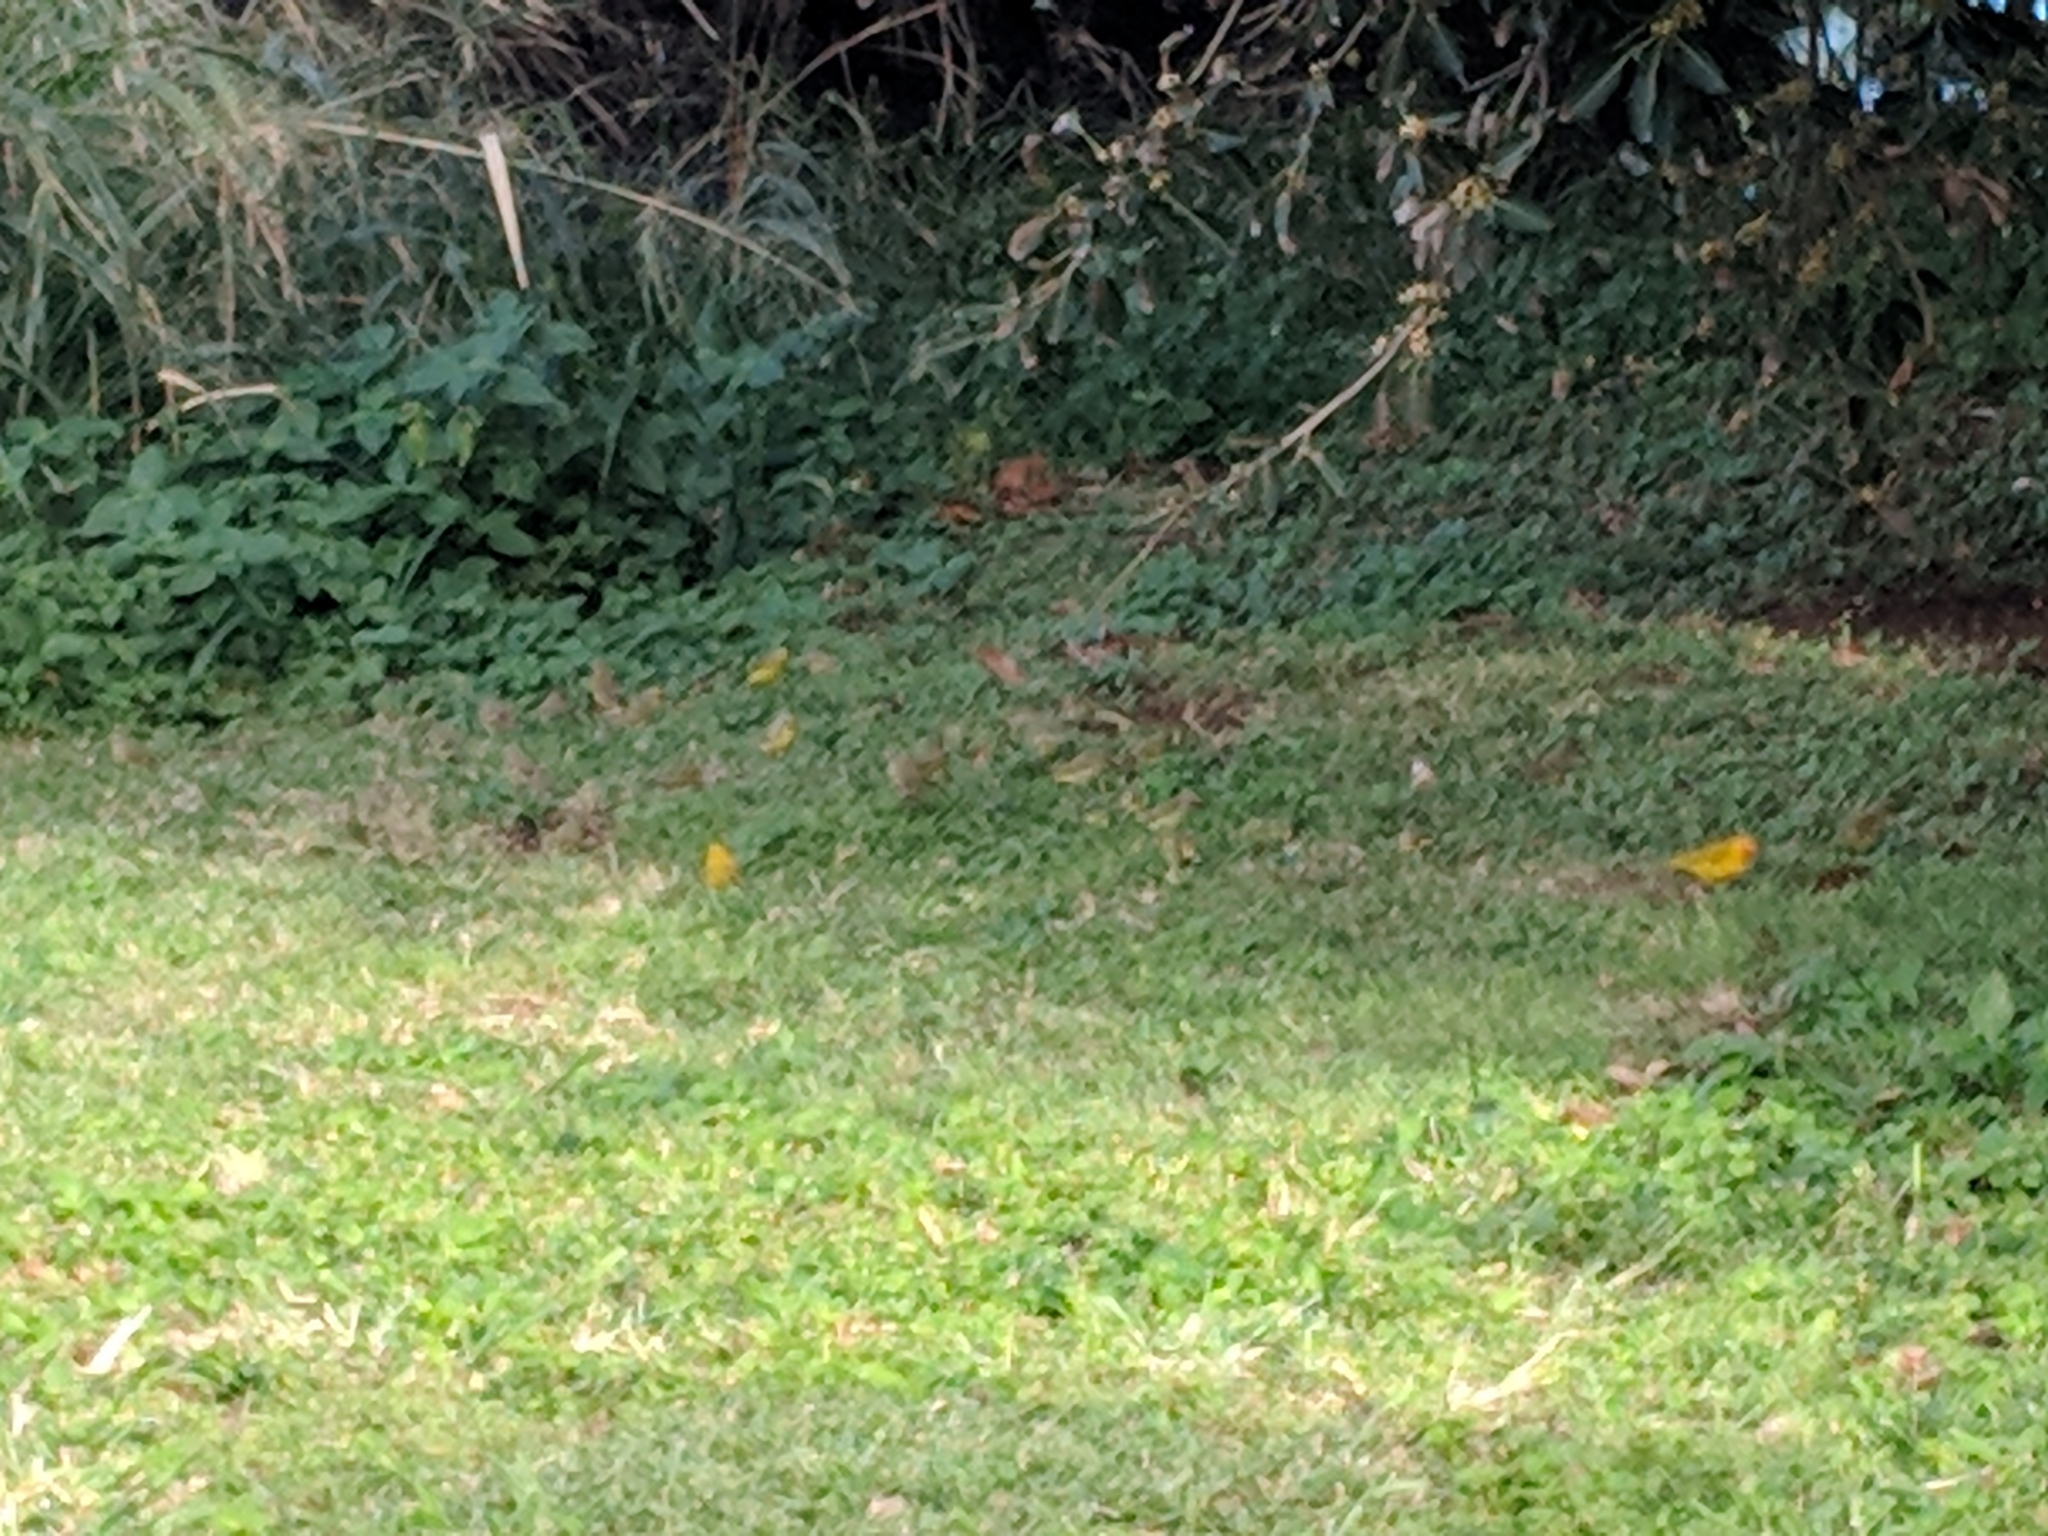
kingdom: Animalia
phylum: Chordata
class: Aves
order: Passeriformes
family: Thraupidae
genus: Sicalis
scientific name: Sicalis flaveola
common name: Saffron finch
